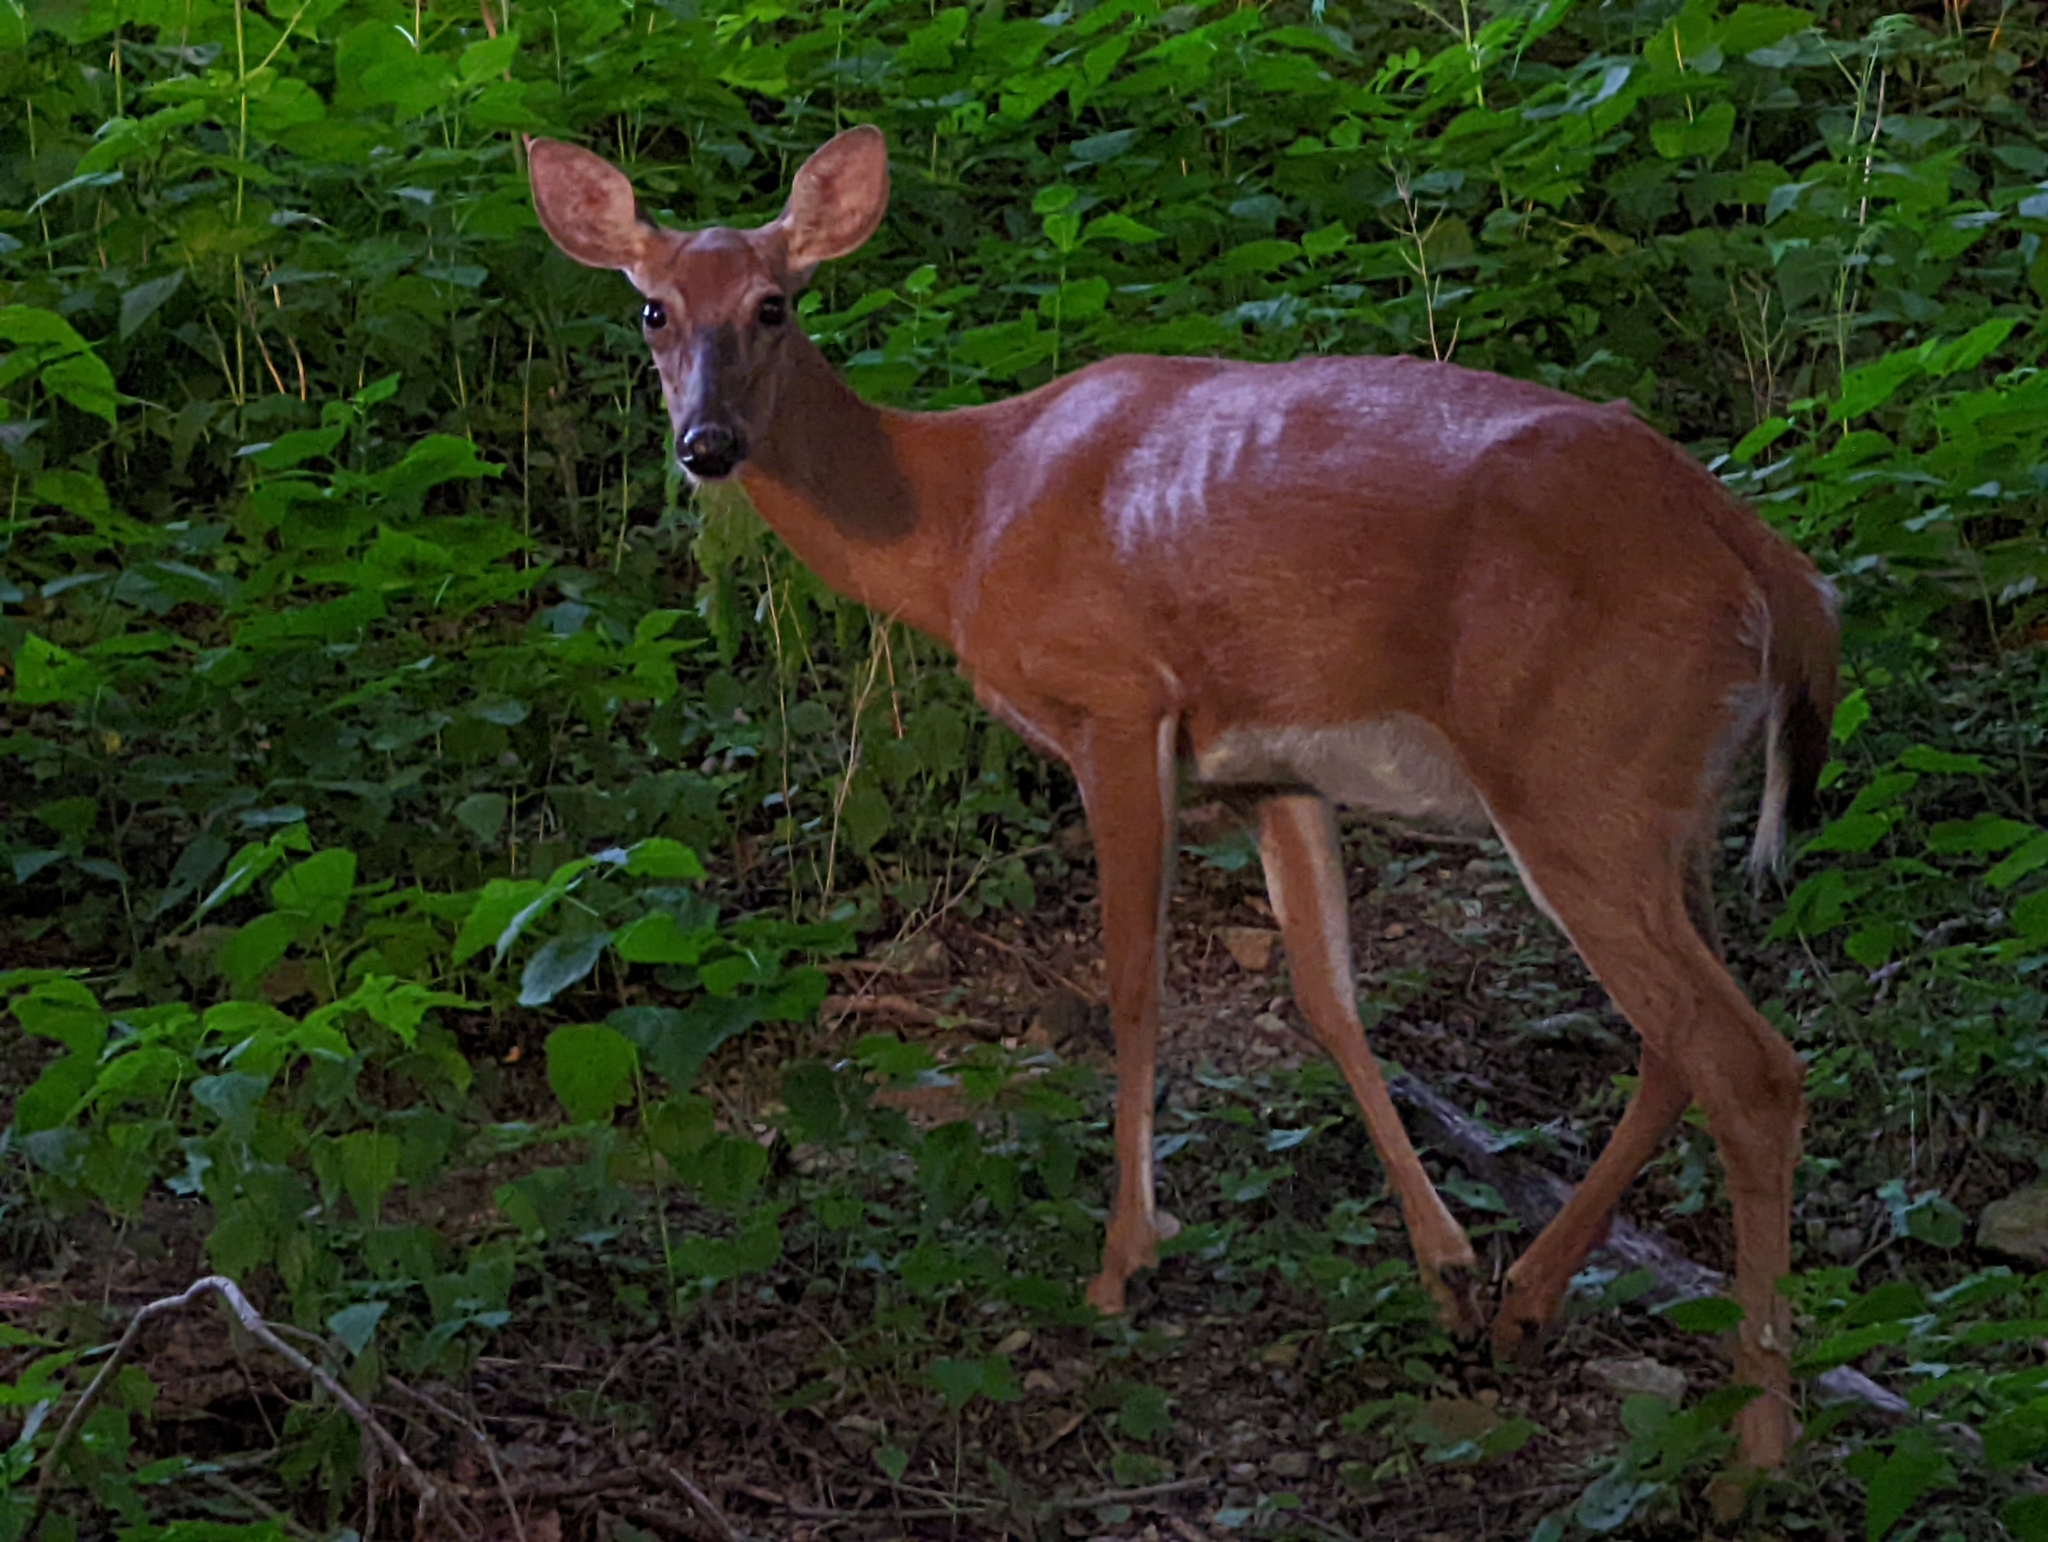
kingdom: Animalia
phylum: Chordata
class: Mammalia
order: Artiodactyla
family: Cervidae
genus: Odocoileus
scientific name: Odocoileus virginianus
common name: White-tailed deer
